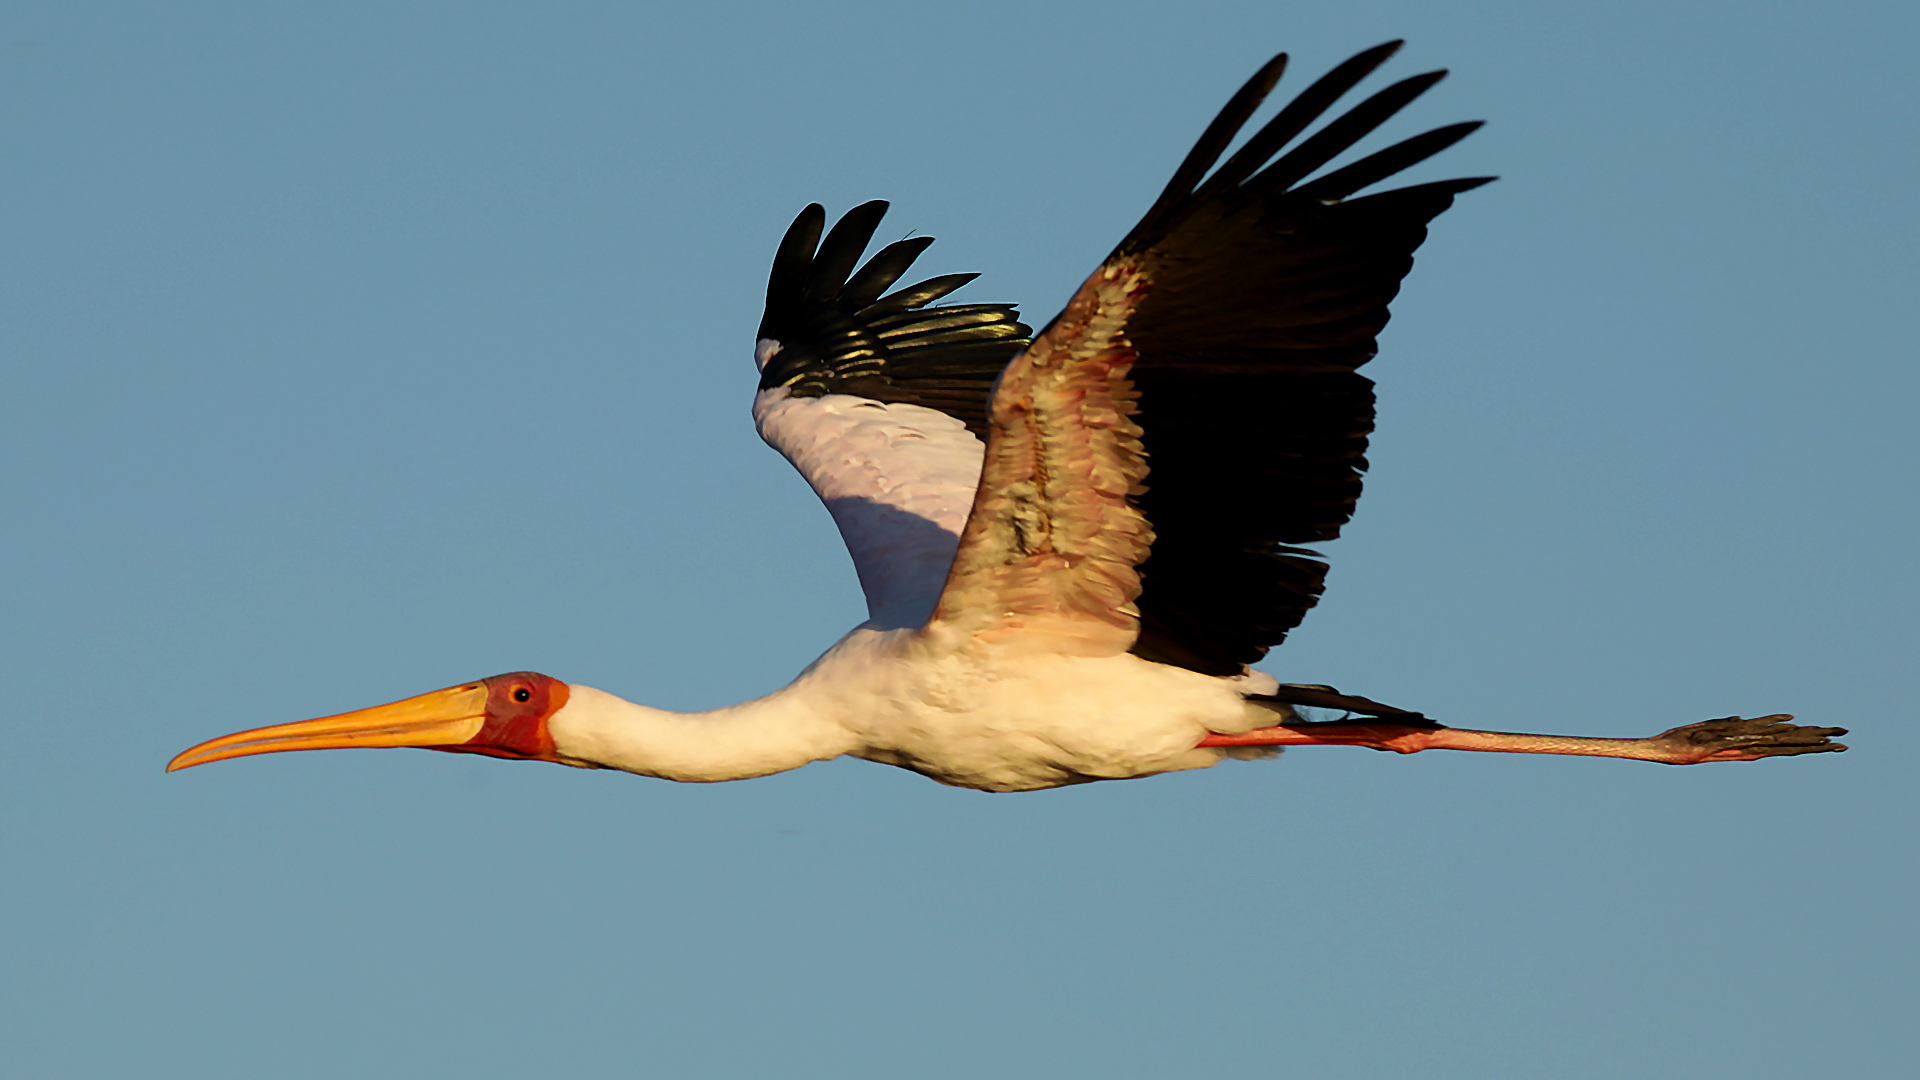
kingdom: Animalia
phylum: Chordata
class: Aves
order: Ciconiiformes
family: Ciconiidae
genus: Mycteria
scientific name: Mycteria ibis
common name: Yellow-billed stork
